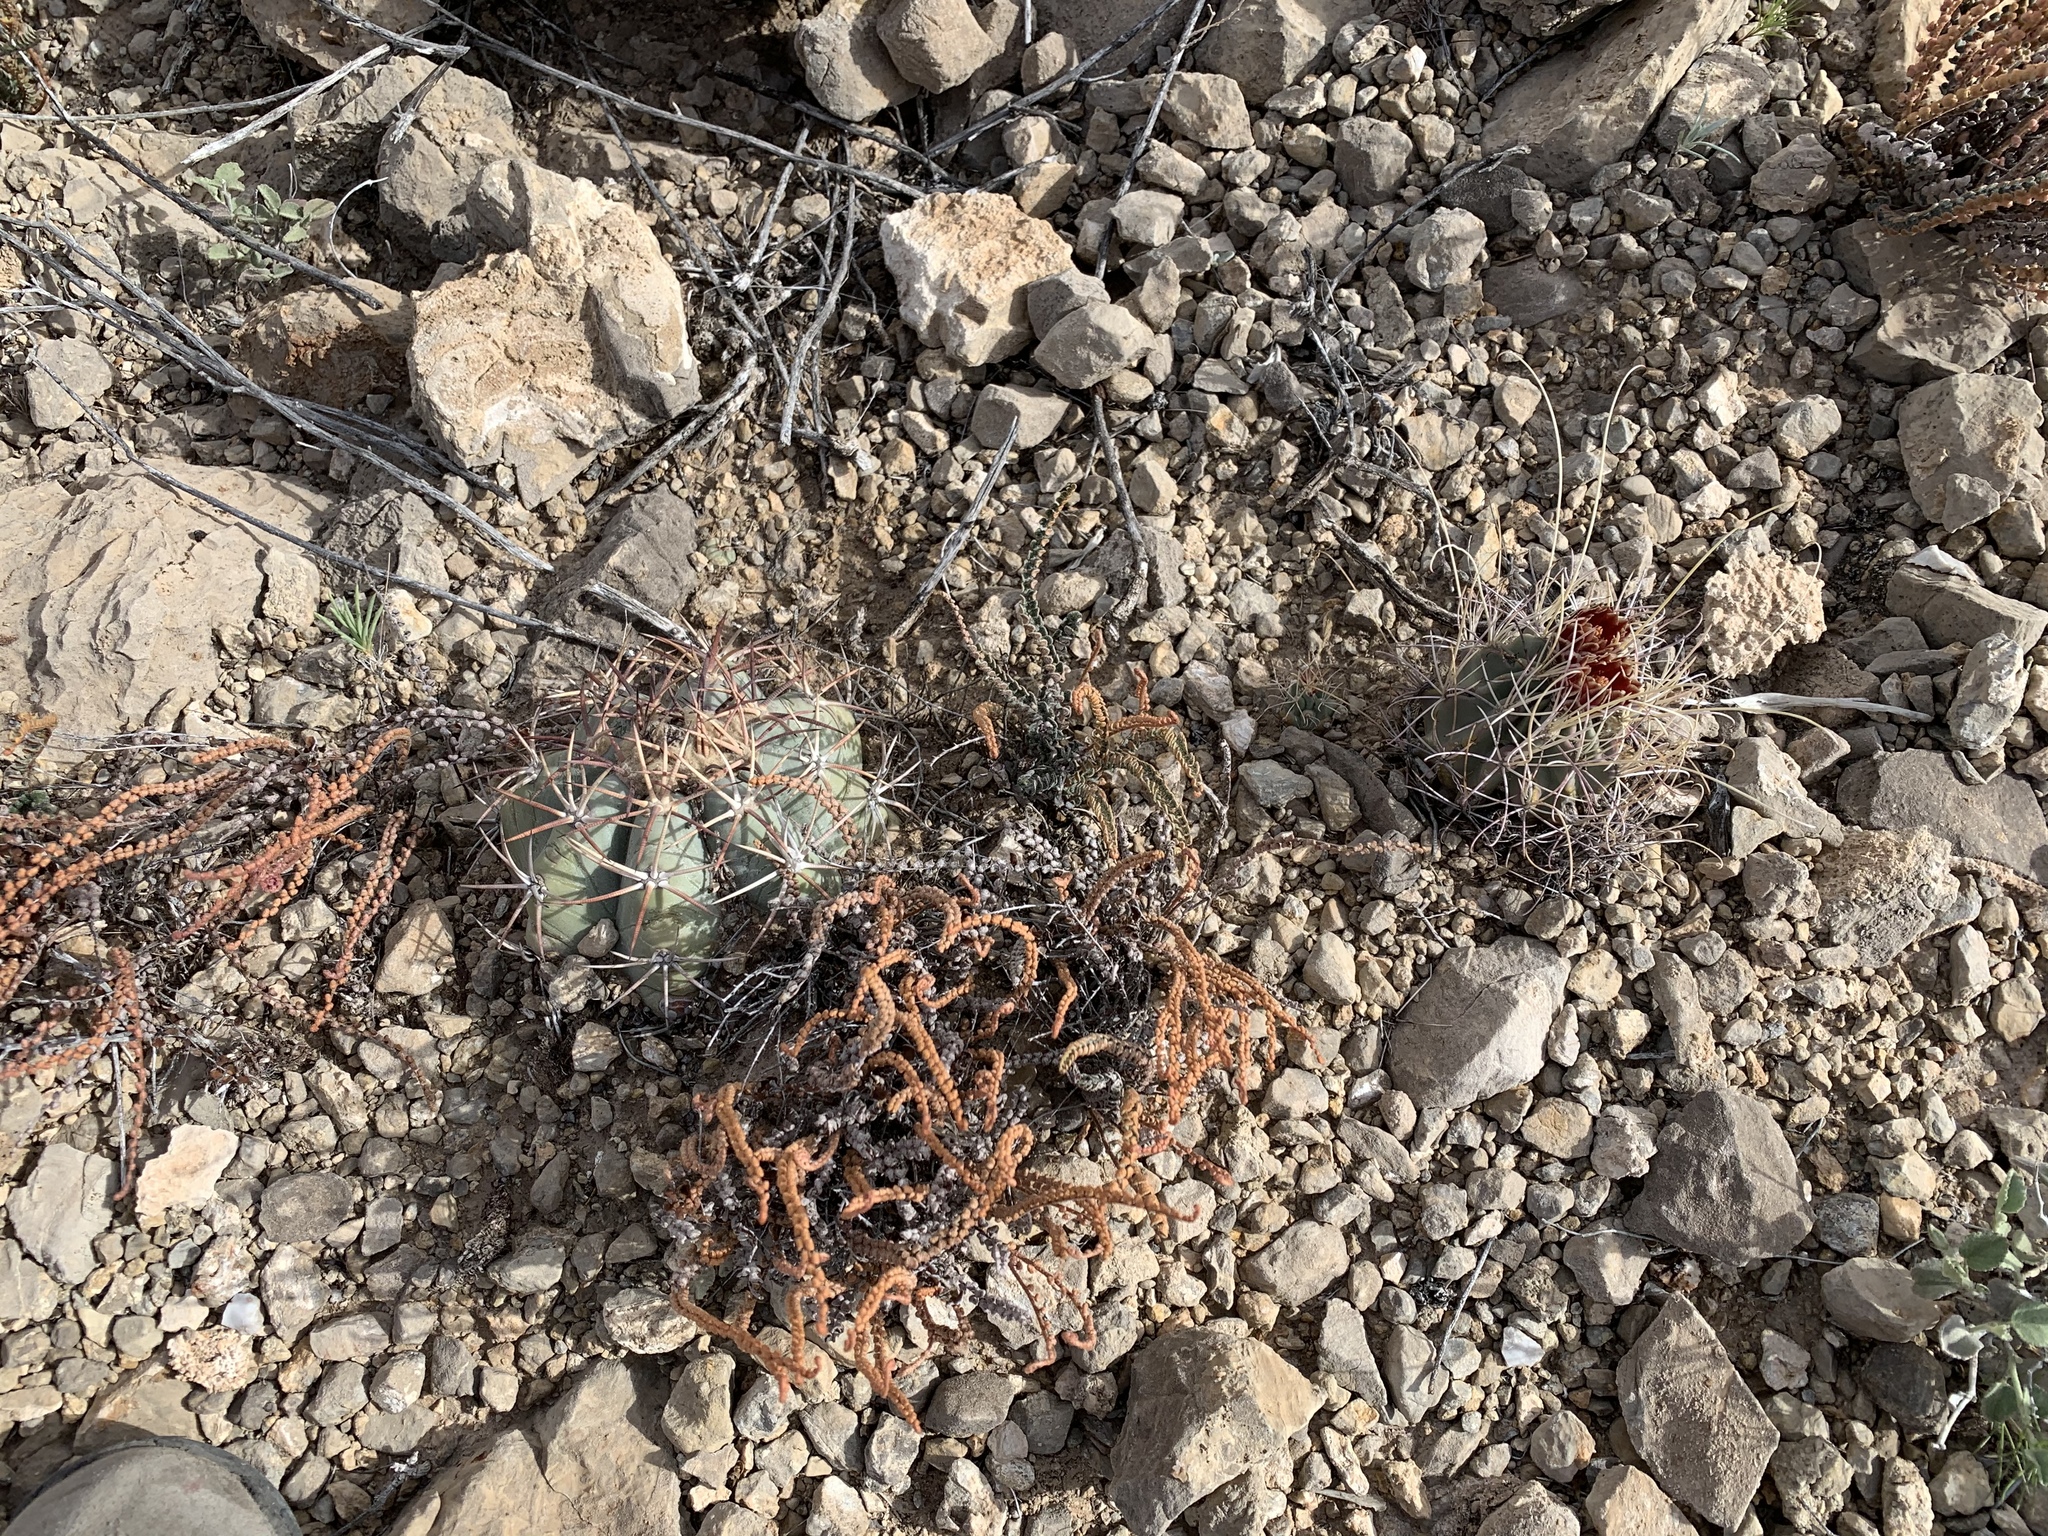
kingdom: Plantae
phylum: Tracheophyta
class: Magnoliopsida
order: Caryophyllales
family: Cactaceae
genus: Echinocactus
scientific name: Echinocactus horizonthalonius
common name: Devilshead
